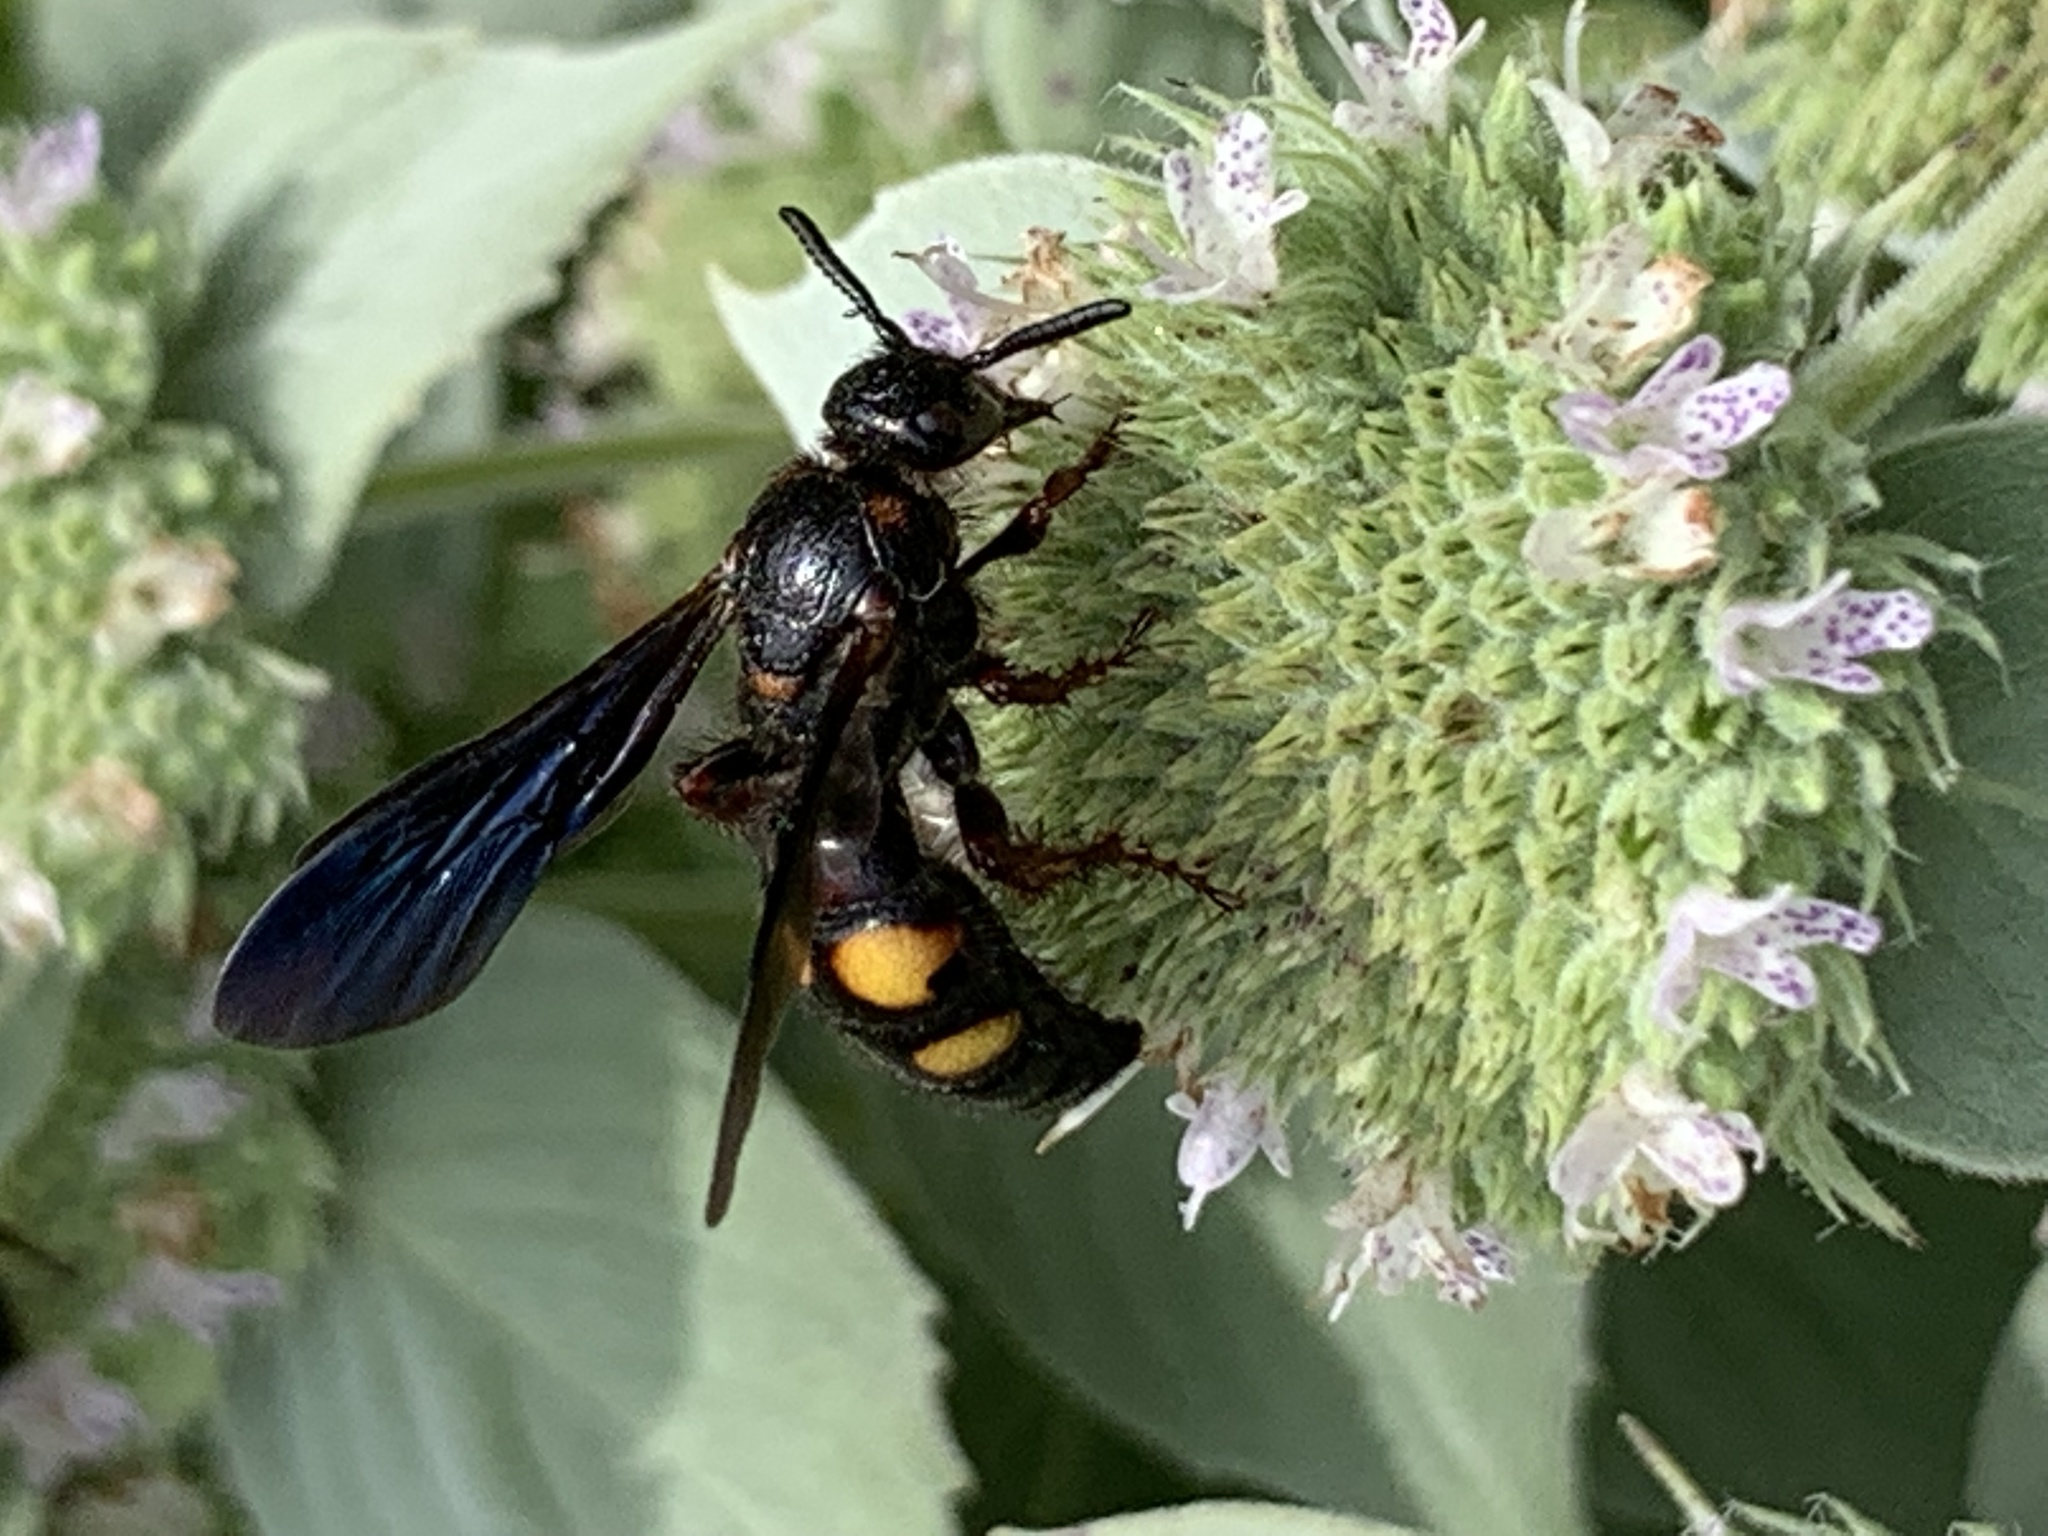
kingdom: Animalia
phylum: Arthropoda
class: Insecta
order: Hymenoptera
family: Scoliidae
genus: Scolia
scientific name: Scolia nobilitata
